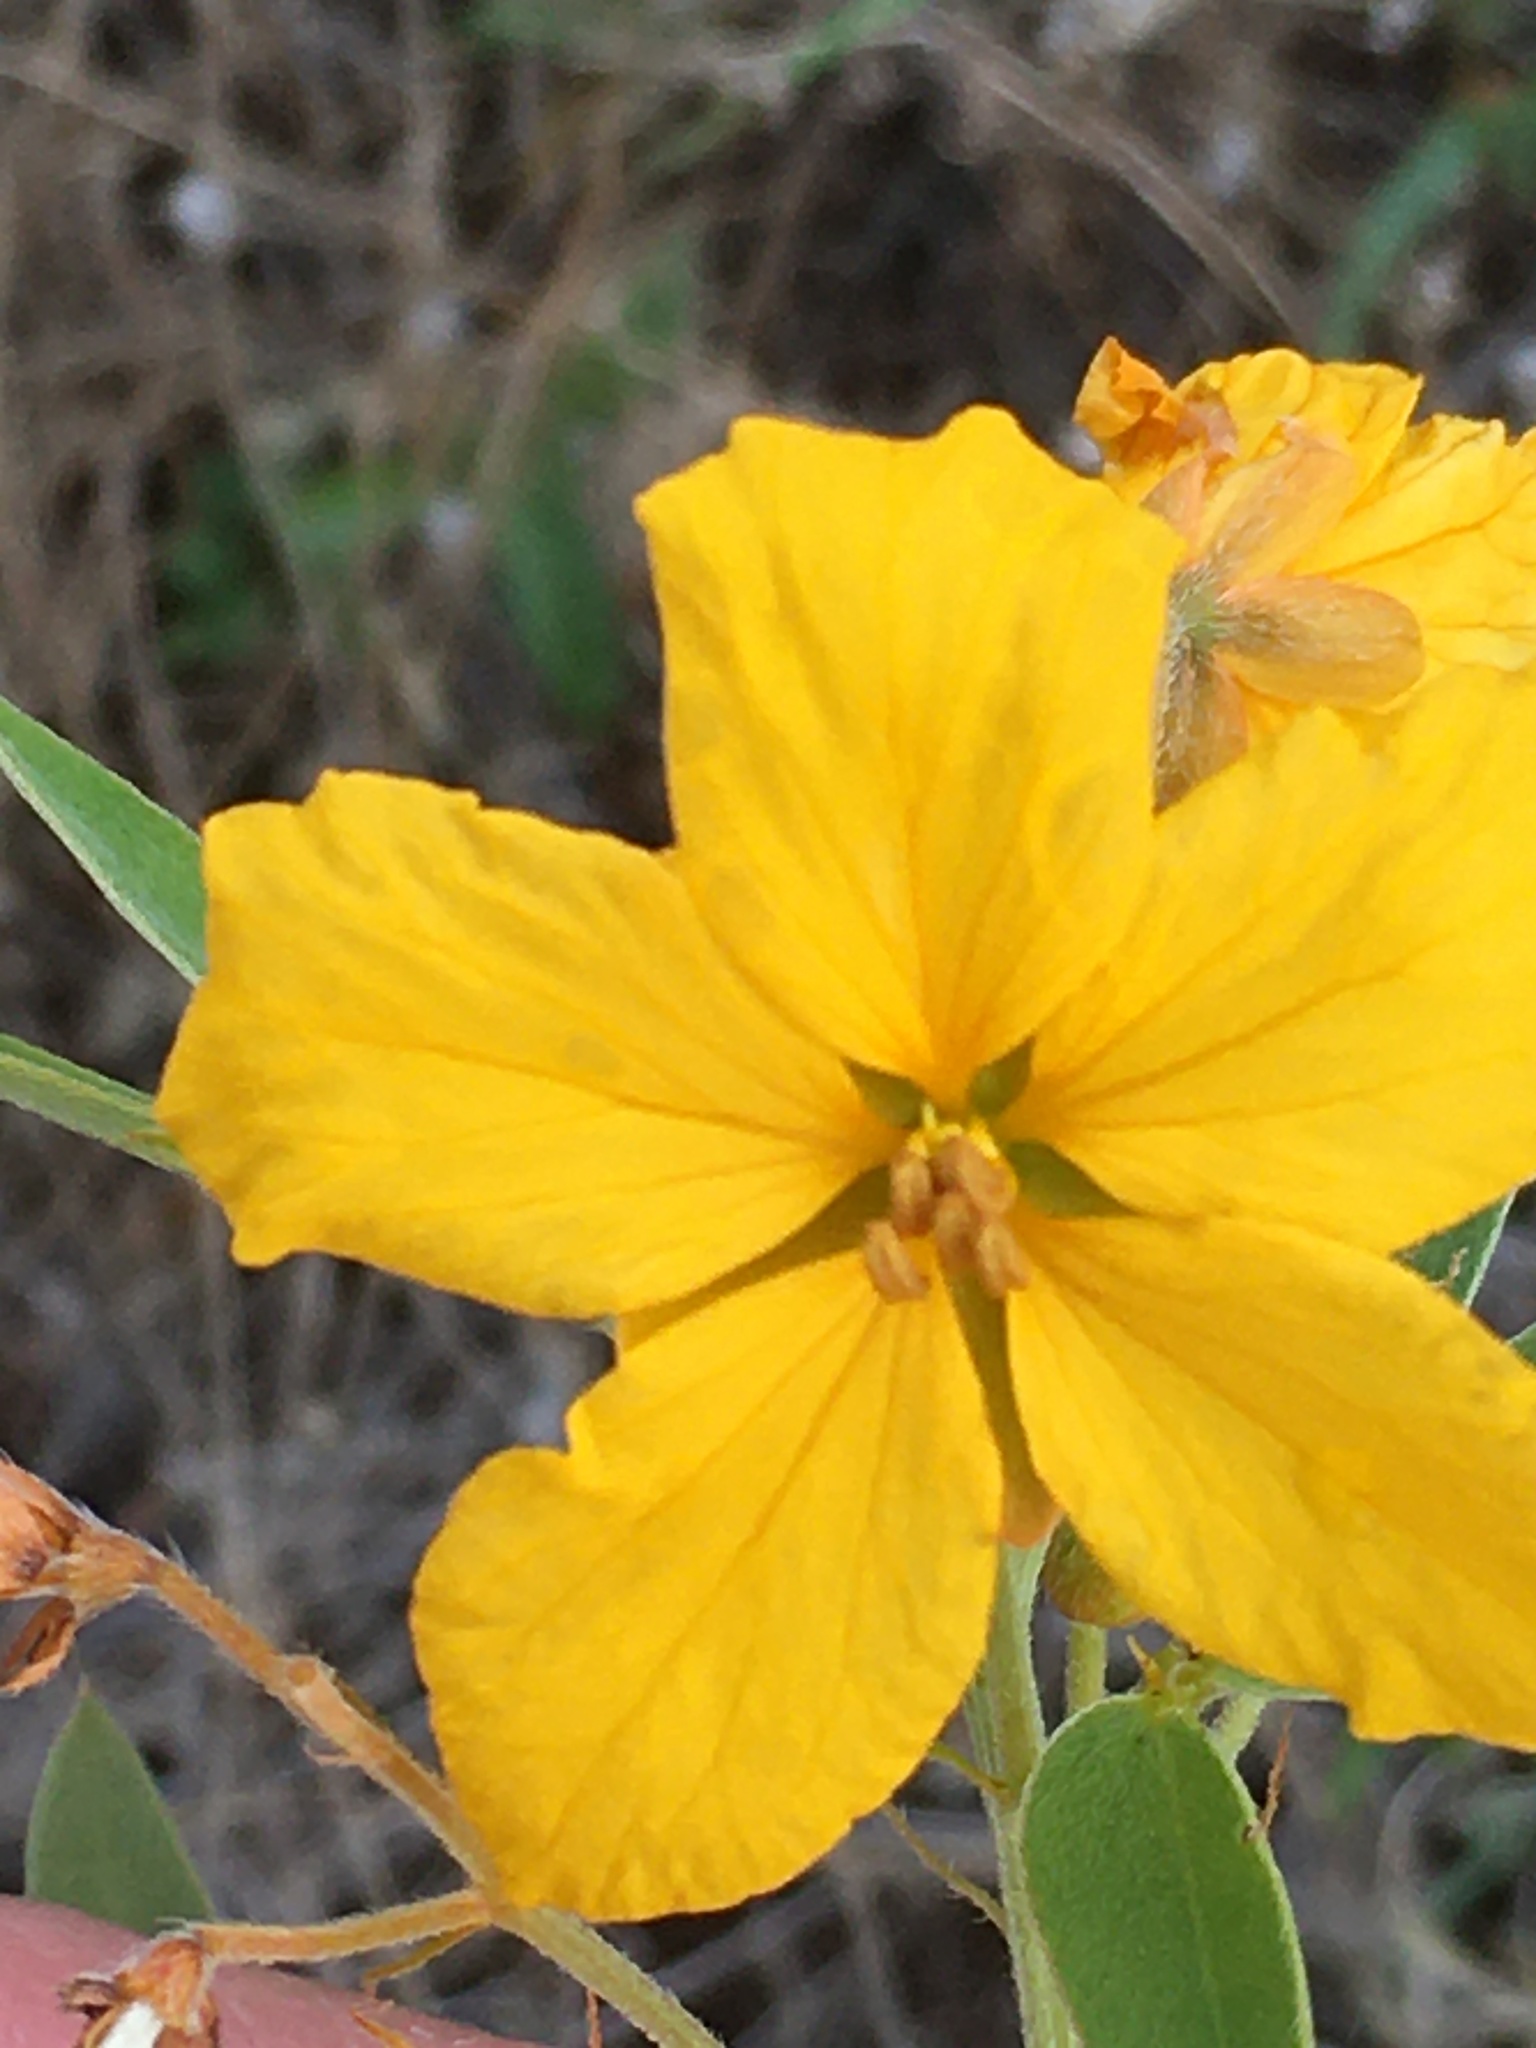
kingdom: Plantae
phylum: Tracheophyta
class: Magnoliopsida
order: Fabales
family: Fabaceae
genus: Senna
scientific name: Senna roemeriana
